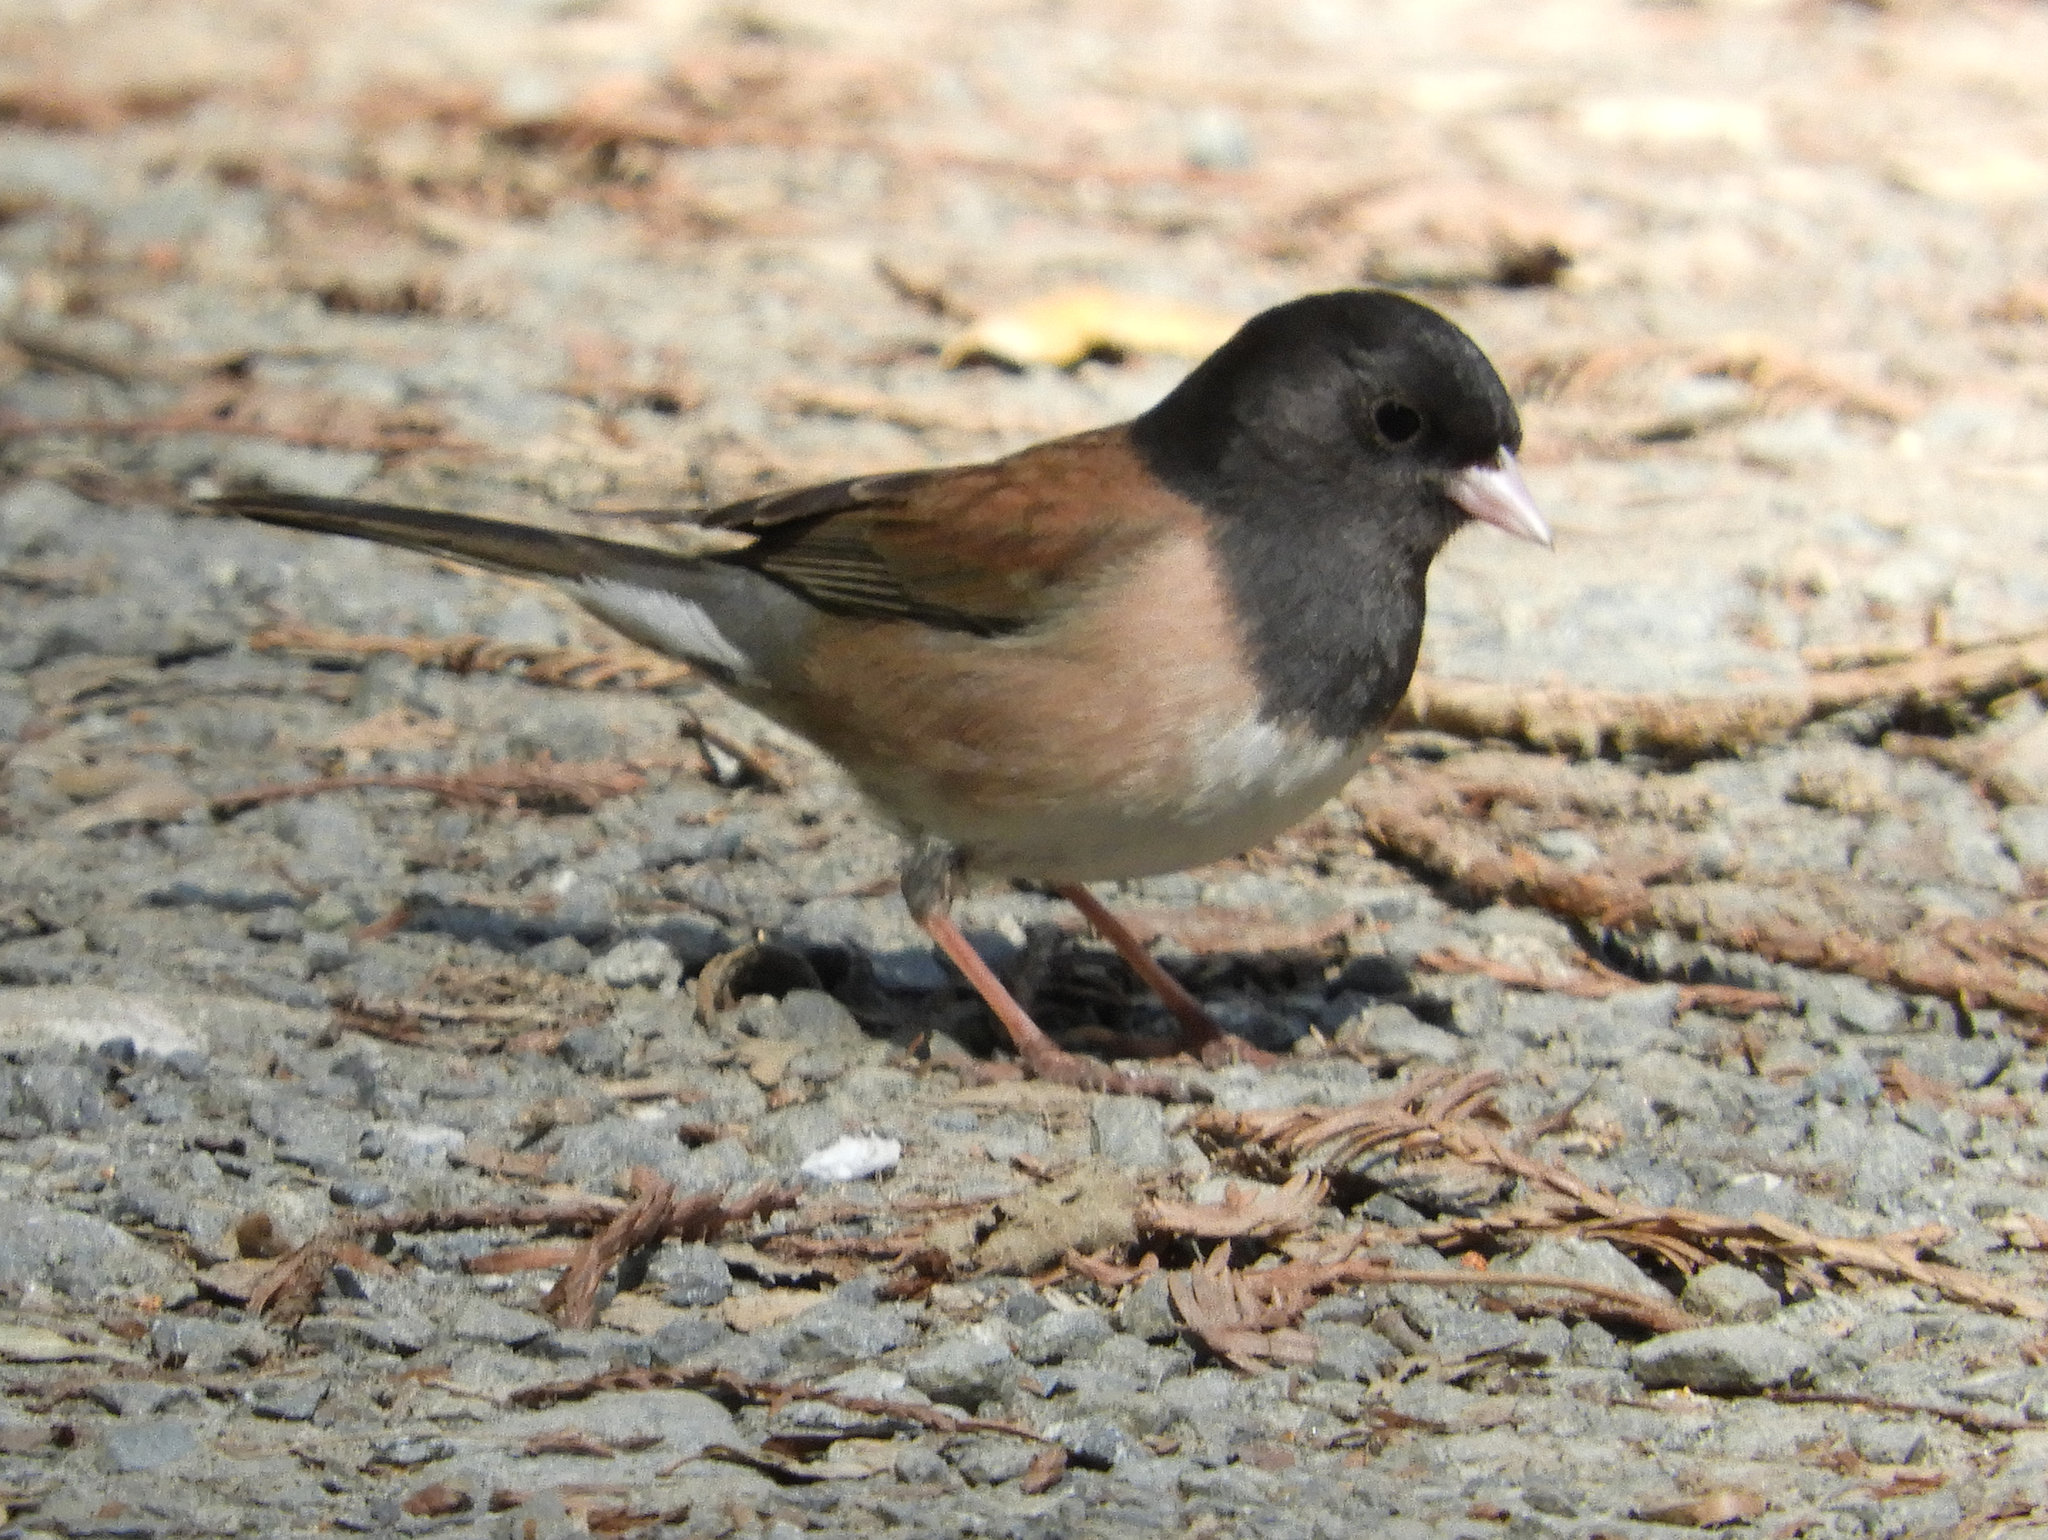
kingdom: Animalia
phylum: Chordata
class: Aves
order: Passeriformes
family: Passerellidae
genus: Junco
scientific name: Junco hyemalis
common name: Dark-eyed junco
